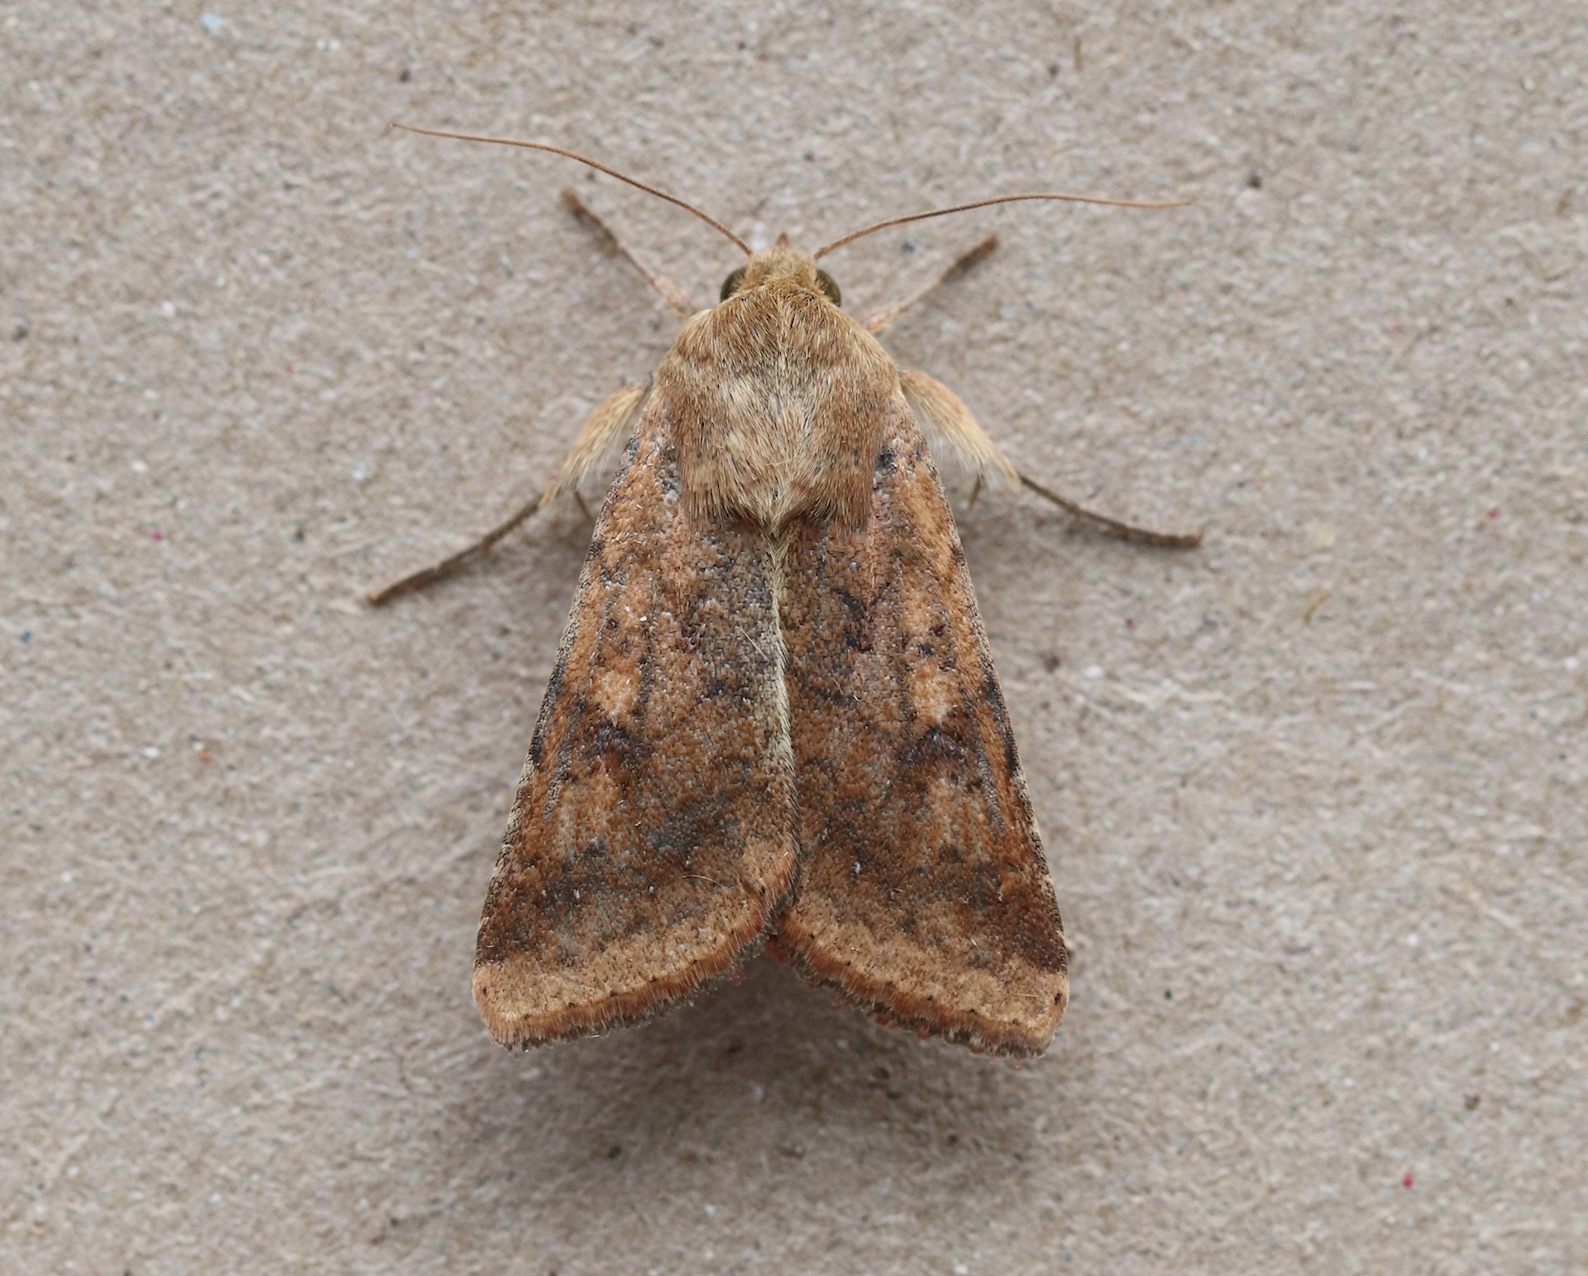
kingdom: Animalia
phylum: Arthropoda
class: Insecta
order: Lepidoptera
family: Noctuidae
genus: Helicoverpa
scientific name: Helicoverpa armigera
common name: Cotton bollworm
